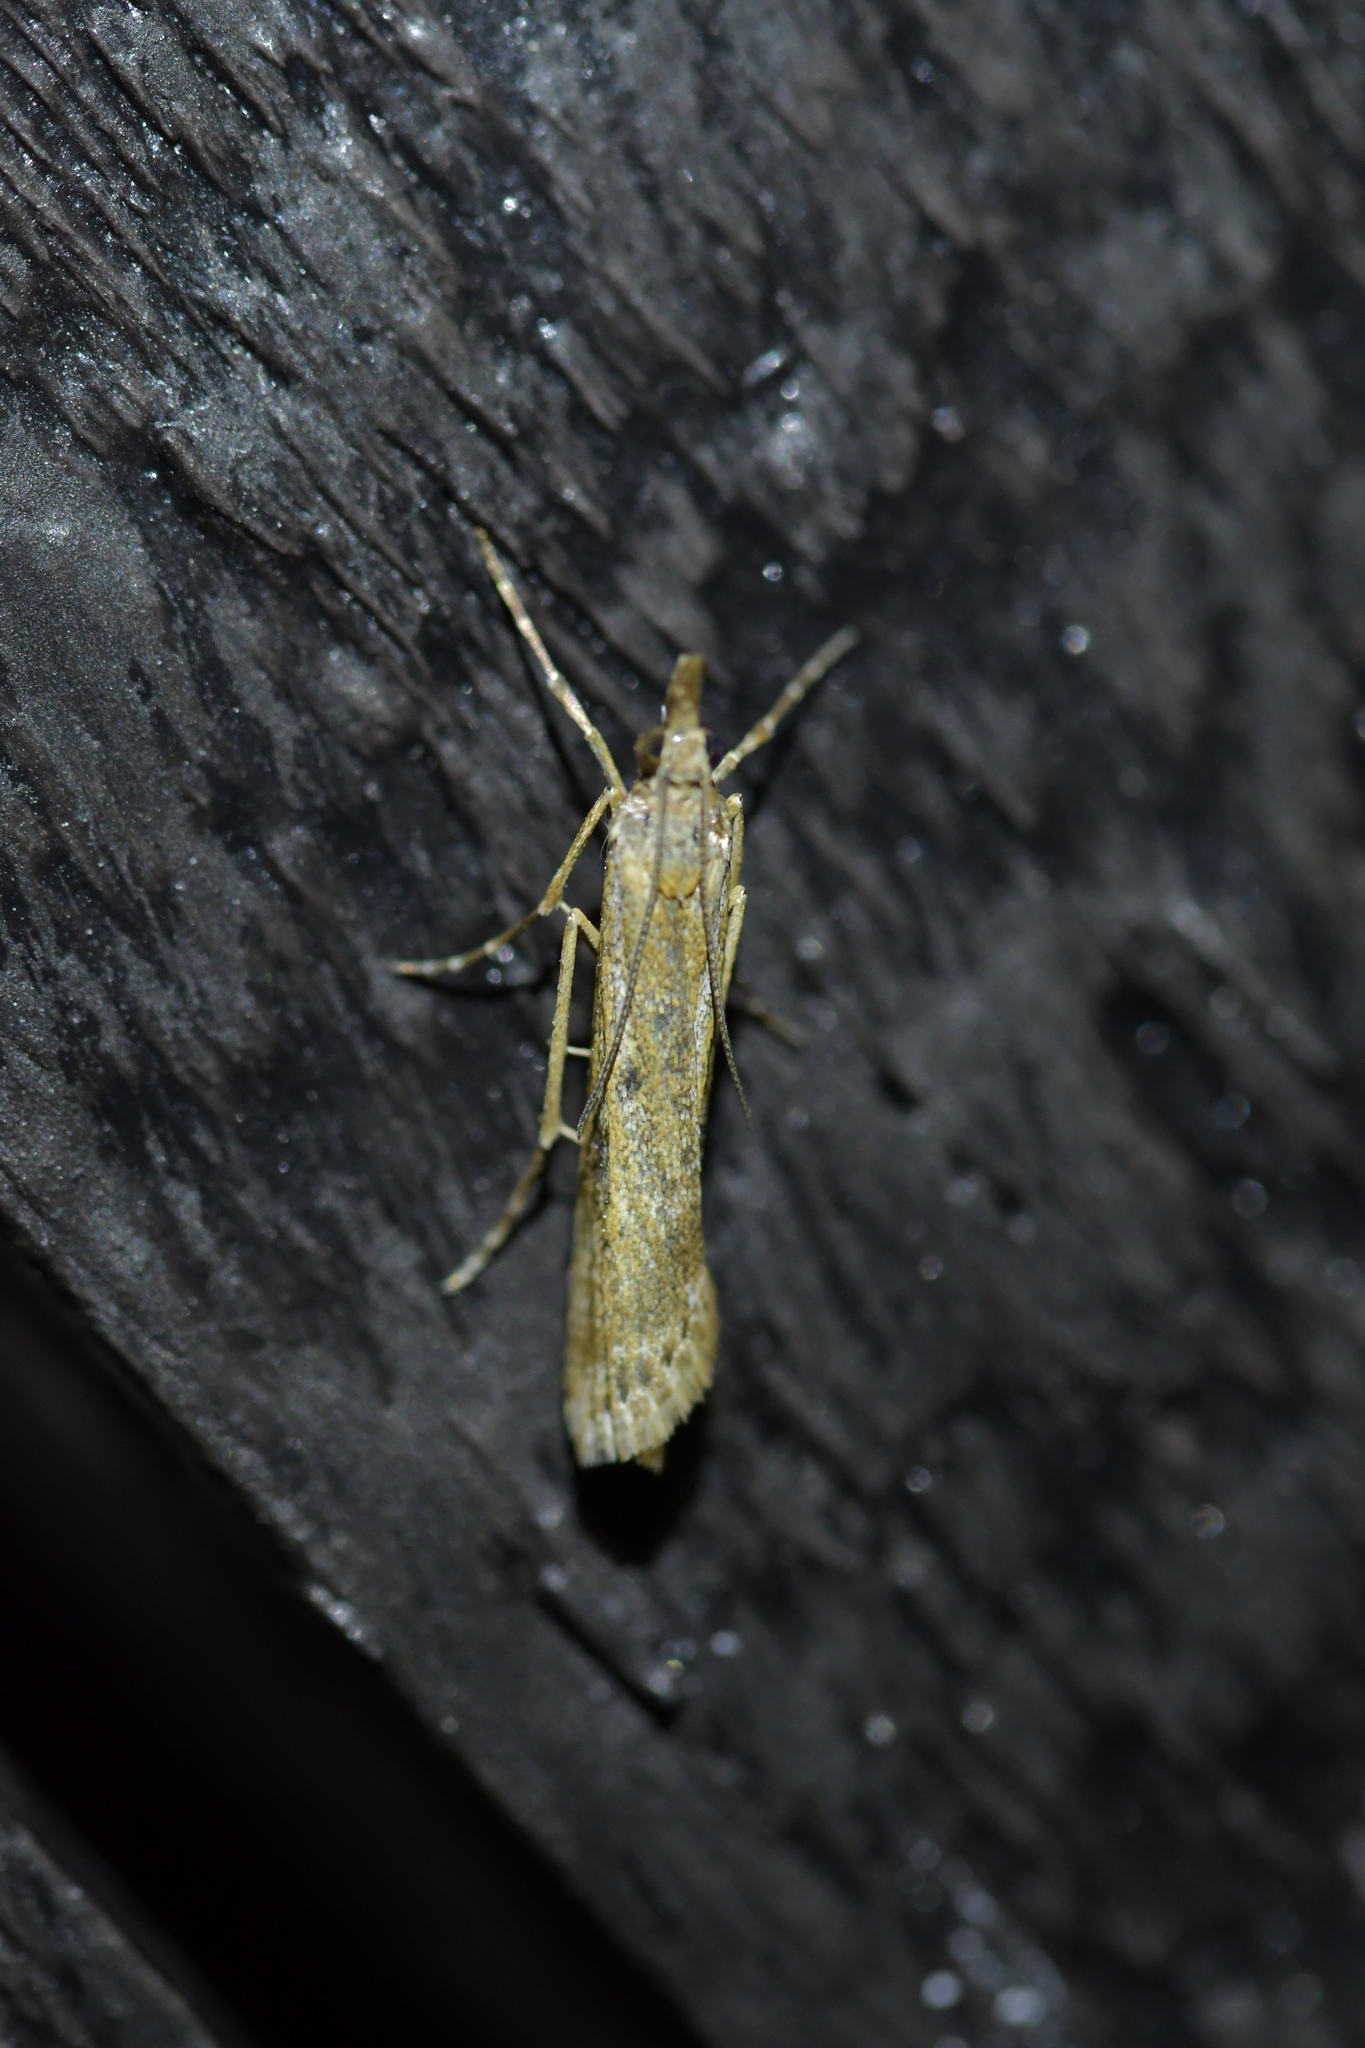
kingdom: Animalia
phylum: Arthropoda
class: Insecta
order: Lepidoptera
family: Crambidae
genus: Eudonia
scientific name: Eudonia leptalea
